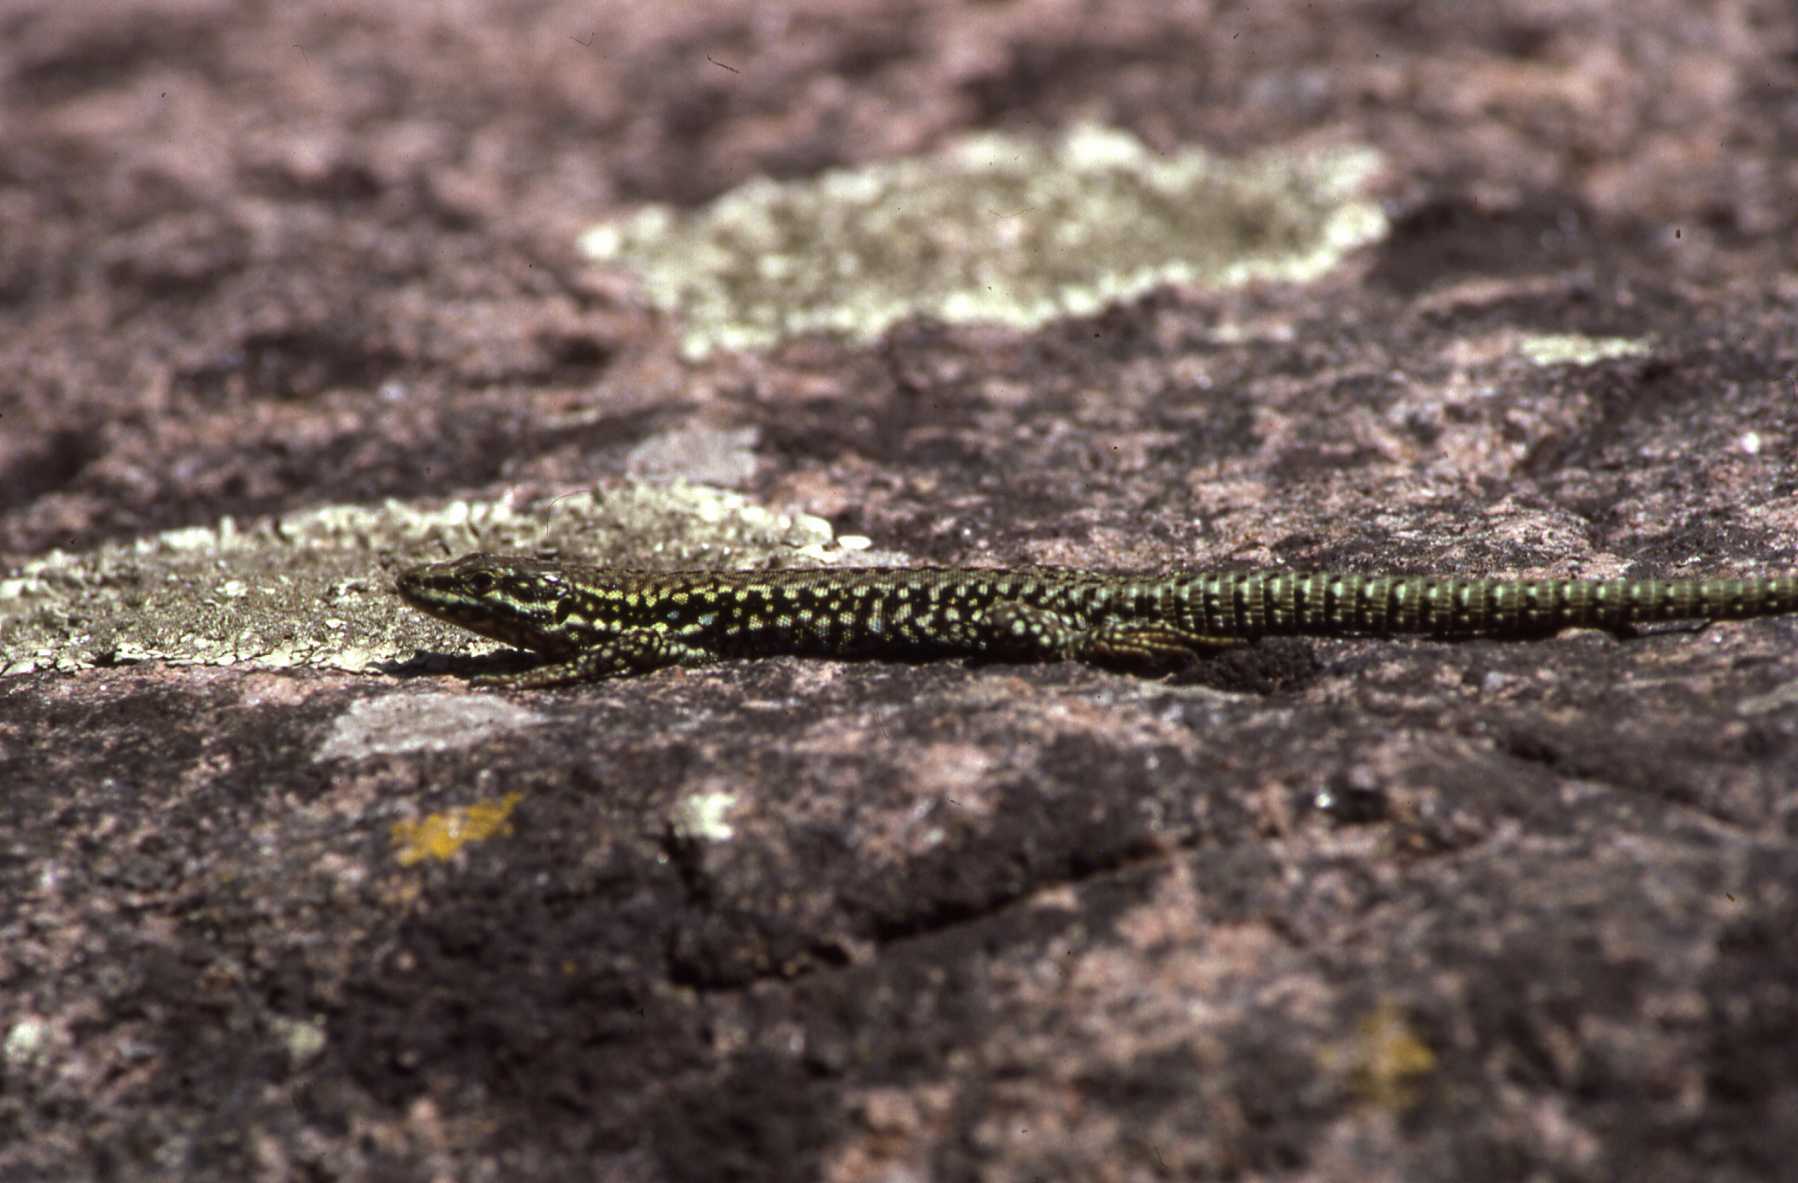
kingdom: Animalia
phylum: Chordata
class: Squamata
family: Lacertidae
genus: Podarcis
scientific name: Podarcis muralis
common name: Common wall lizard
